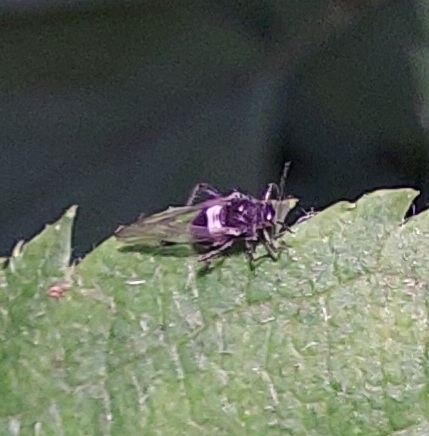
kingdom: Animalia
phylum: Arthropoda
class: Insecta
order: Hemiptera
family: Aphididae
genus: Anoecia
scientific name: Anoecia
